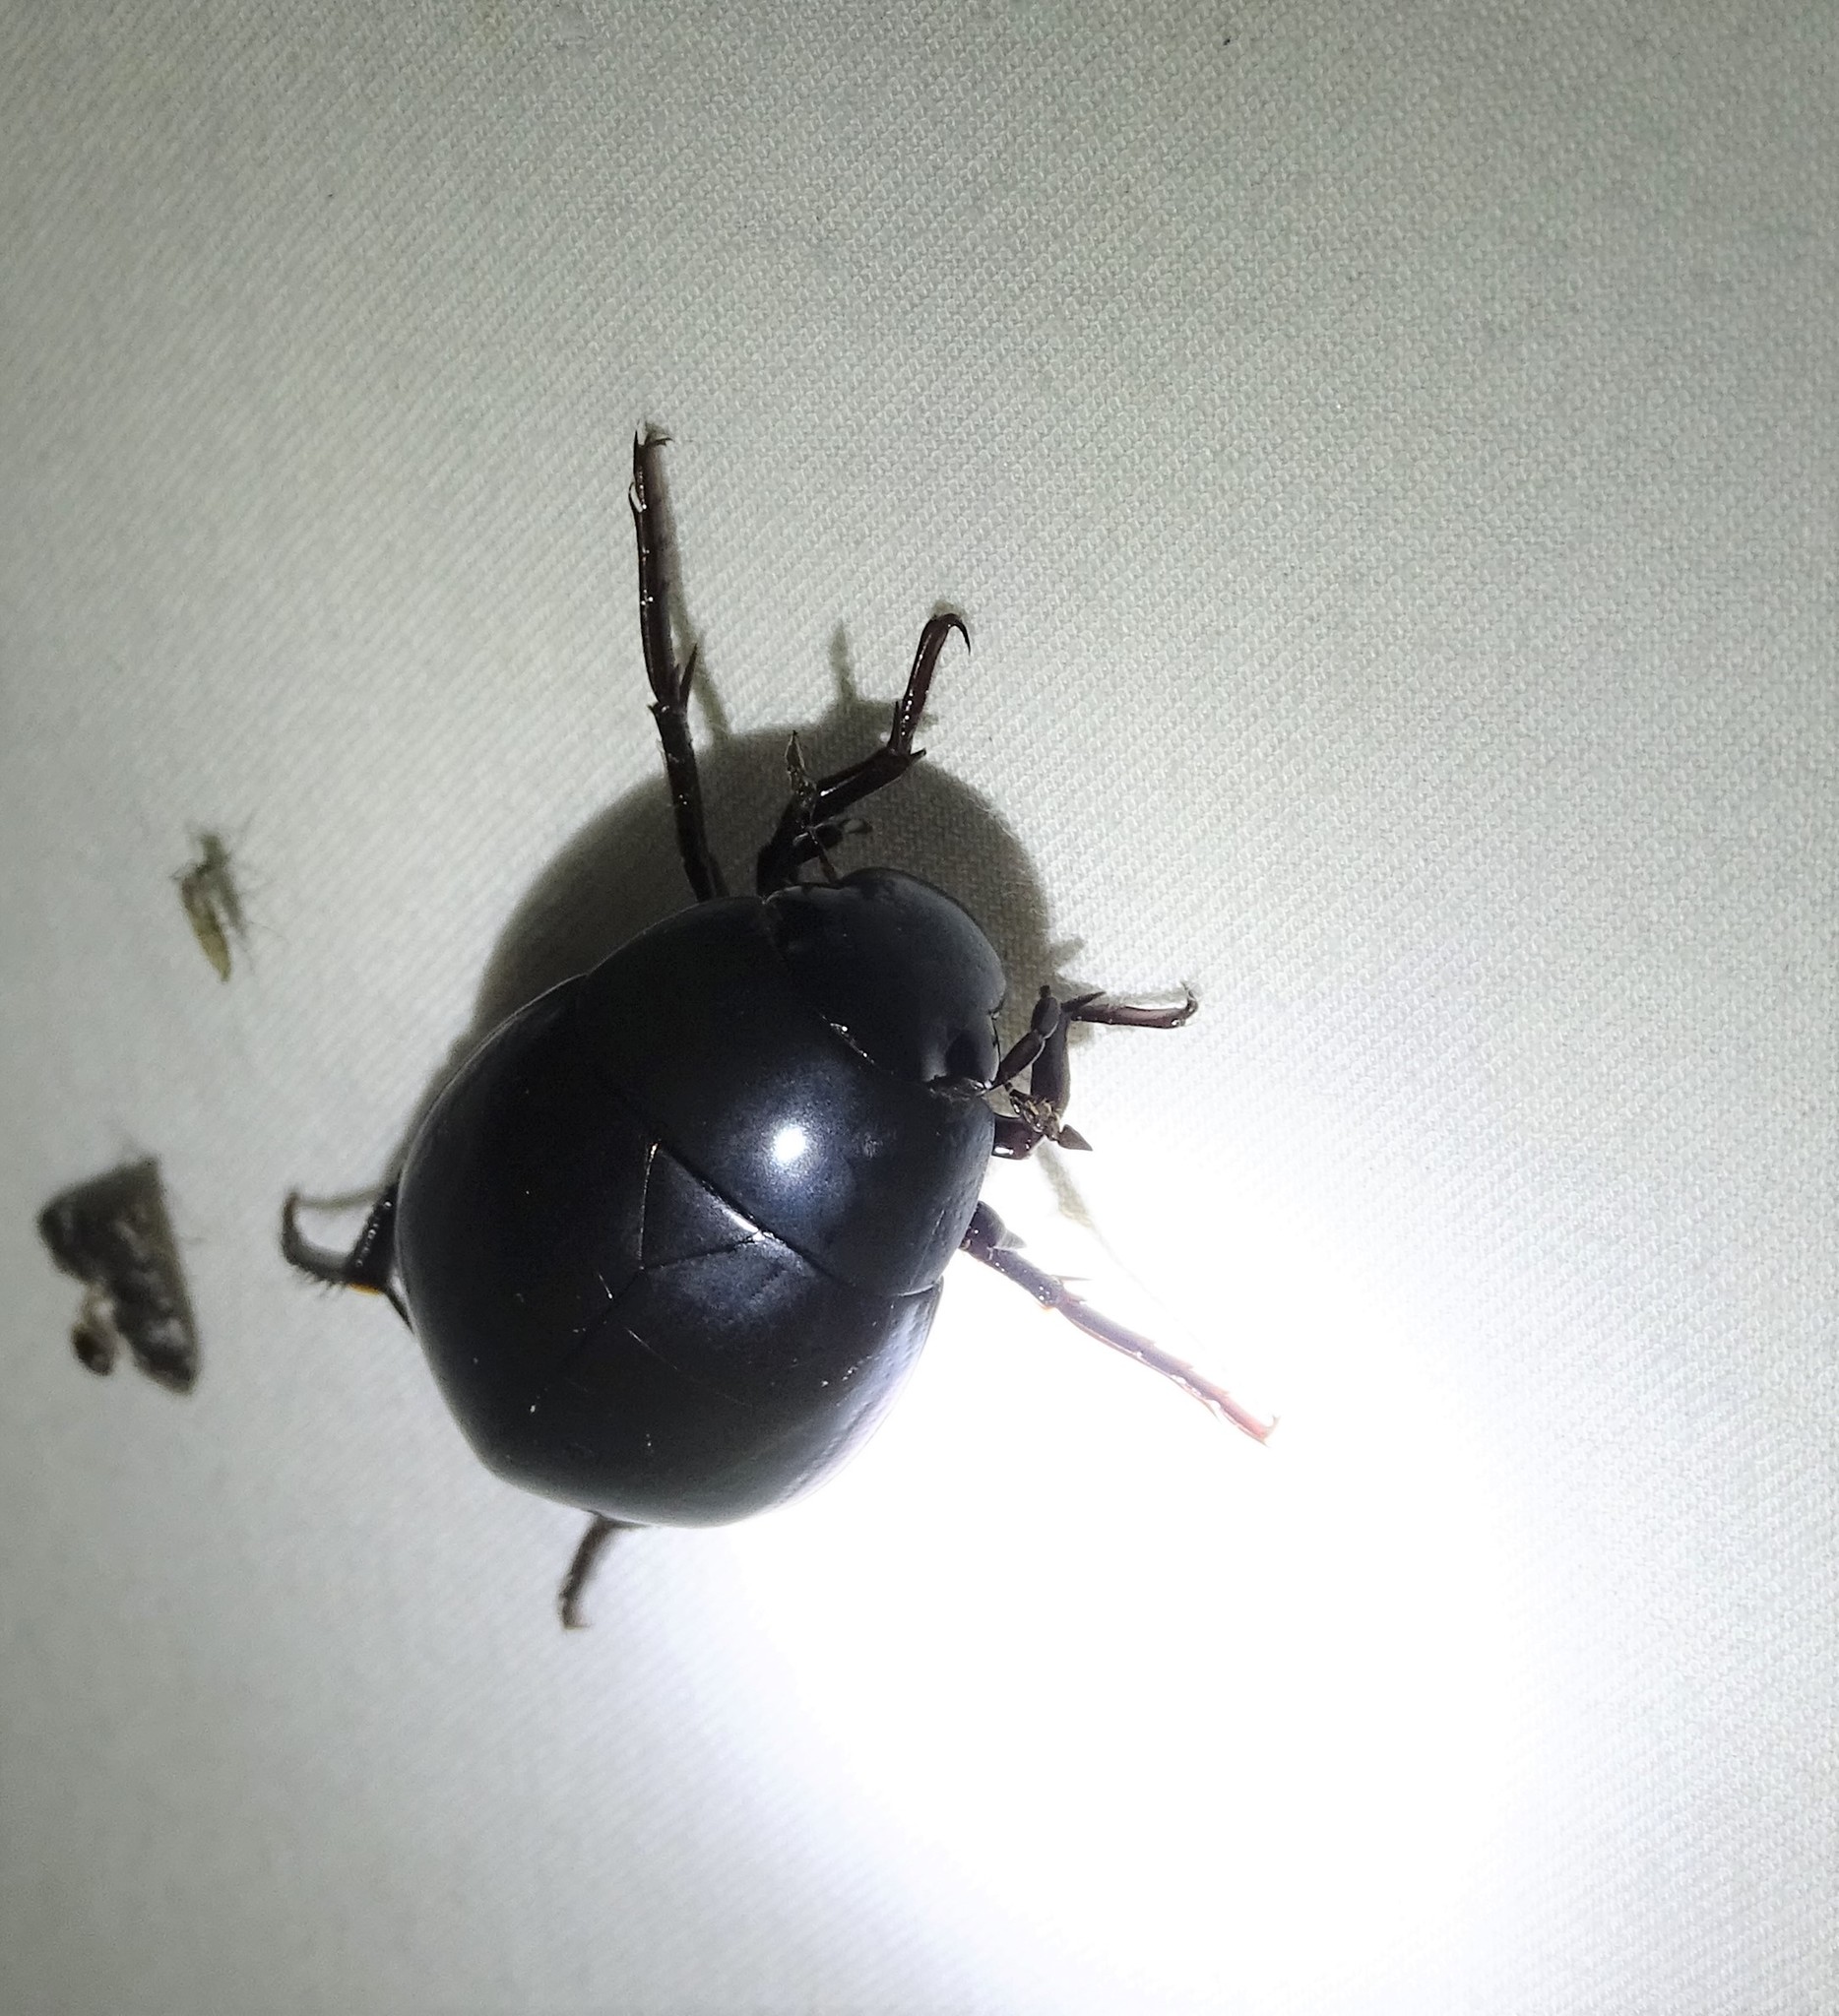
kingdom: Animalia
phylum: Arthropoda
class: Insecta
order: Coleoptera
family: Hydrophilidae
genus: Hydrophilus
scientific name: Hydrophilus ovatus
